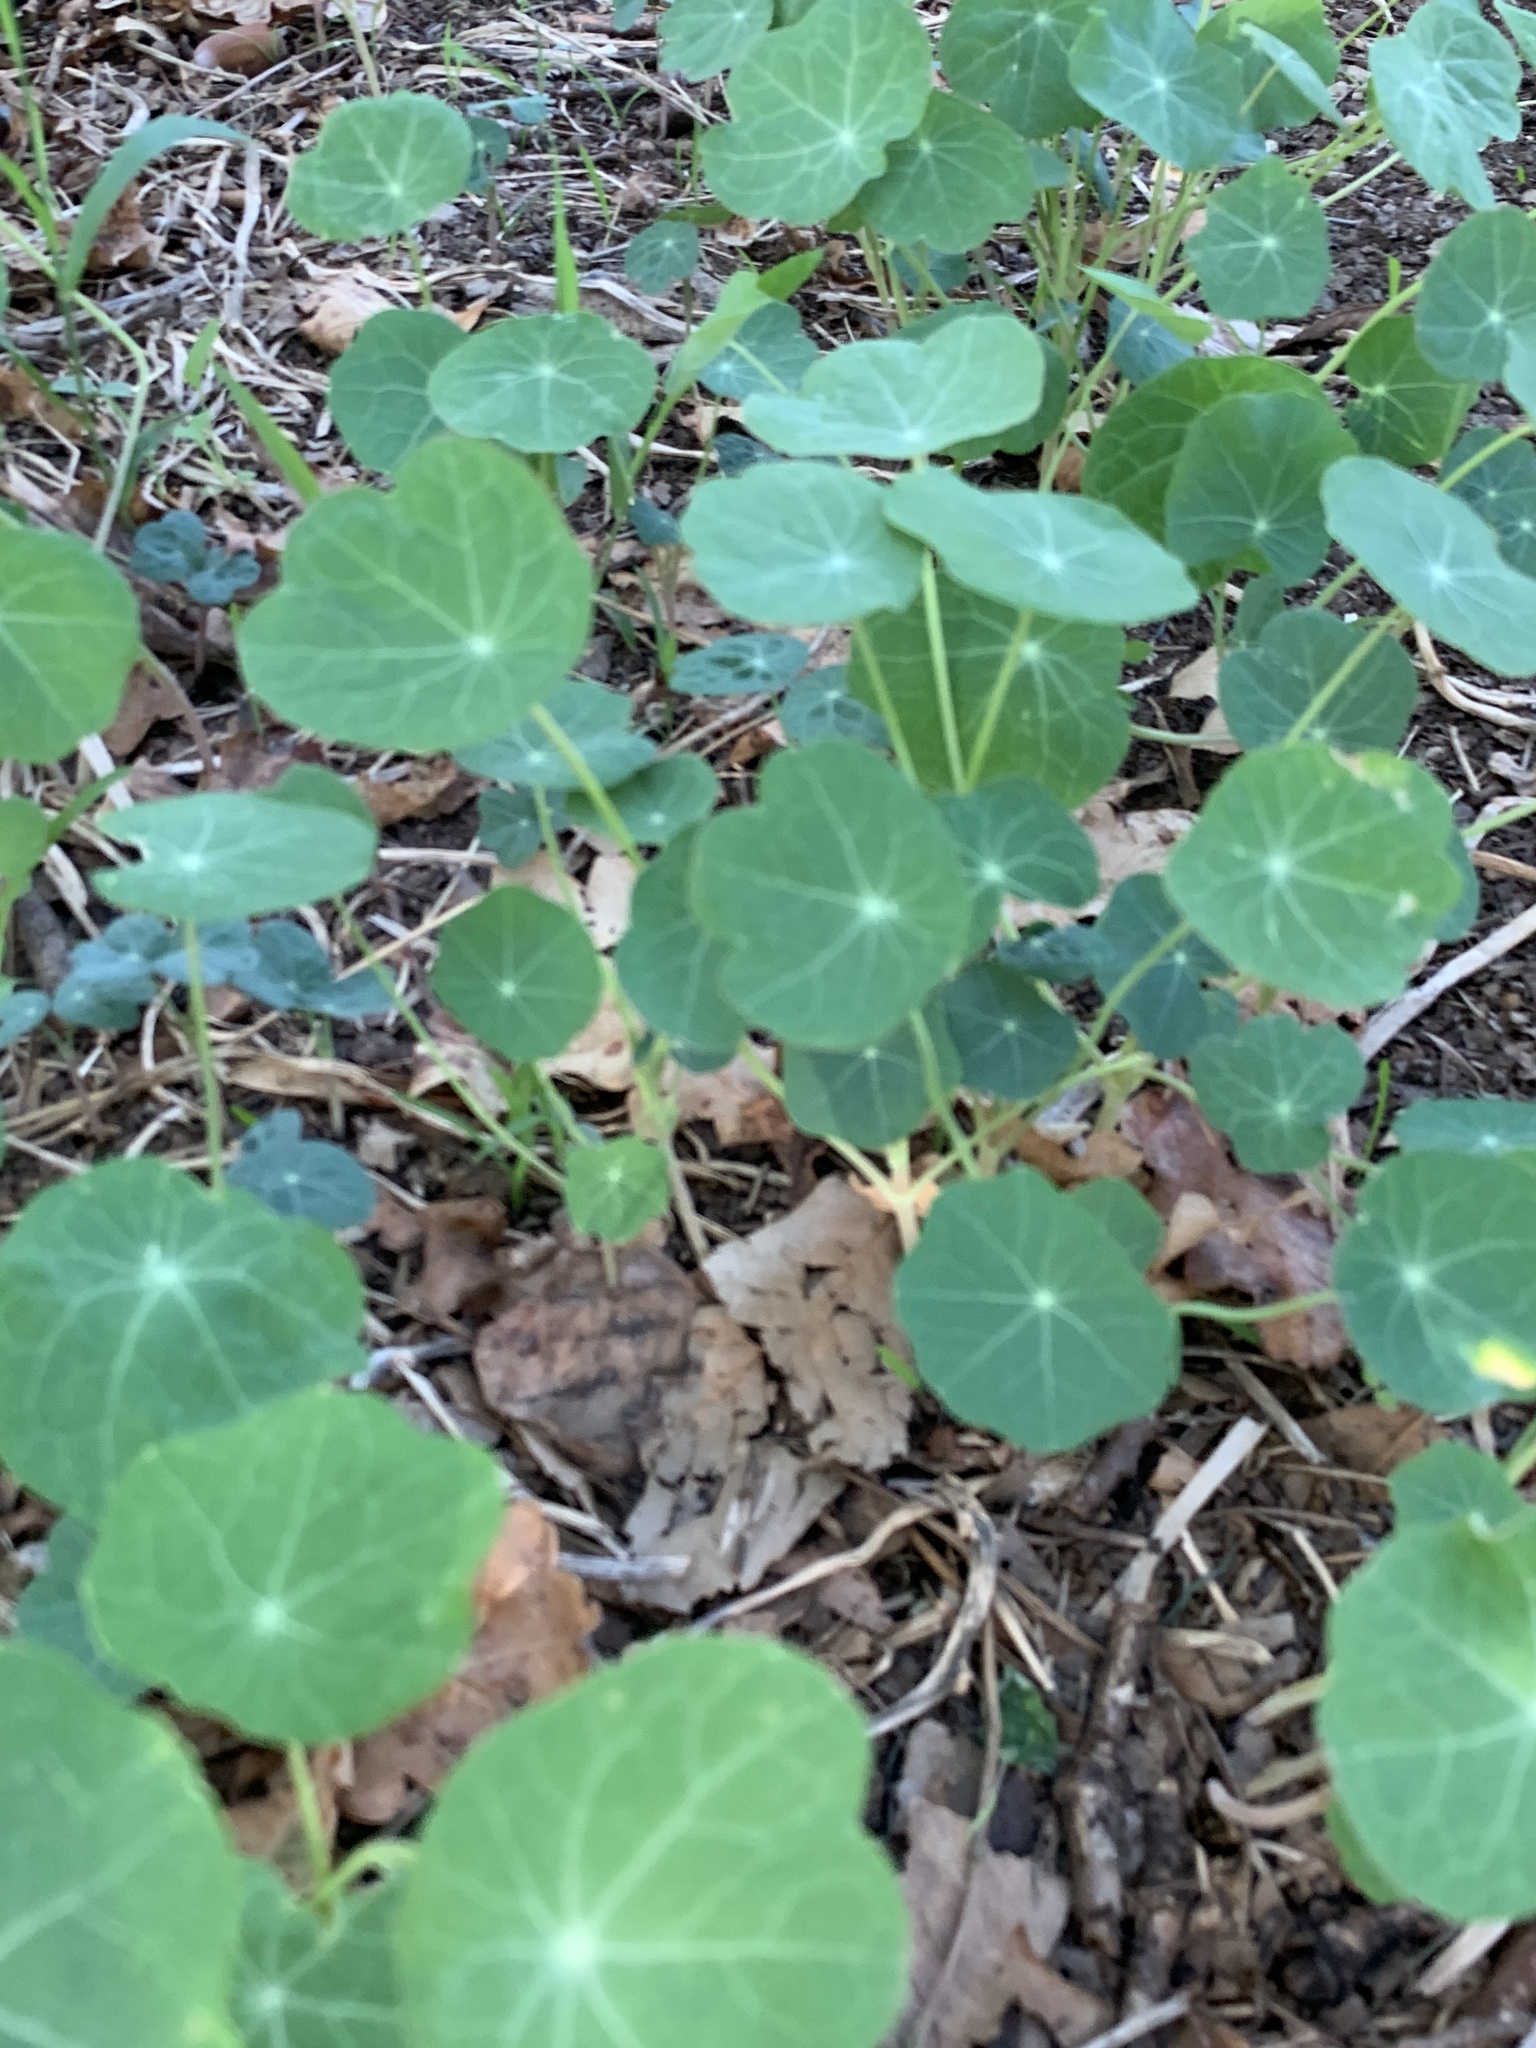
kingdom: Plantae
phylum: Tracheophyta
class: Magnoliopsida
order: Brassicales
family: Tropaeolaceae
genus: Tropaeolum
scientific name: Tropaeolum majus
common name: Nasturtium
